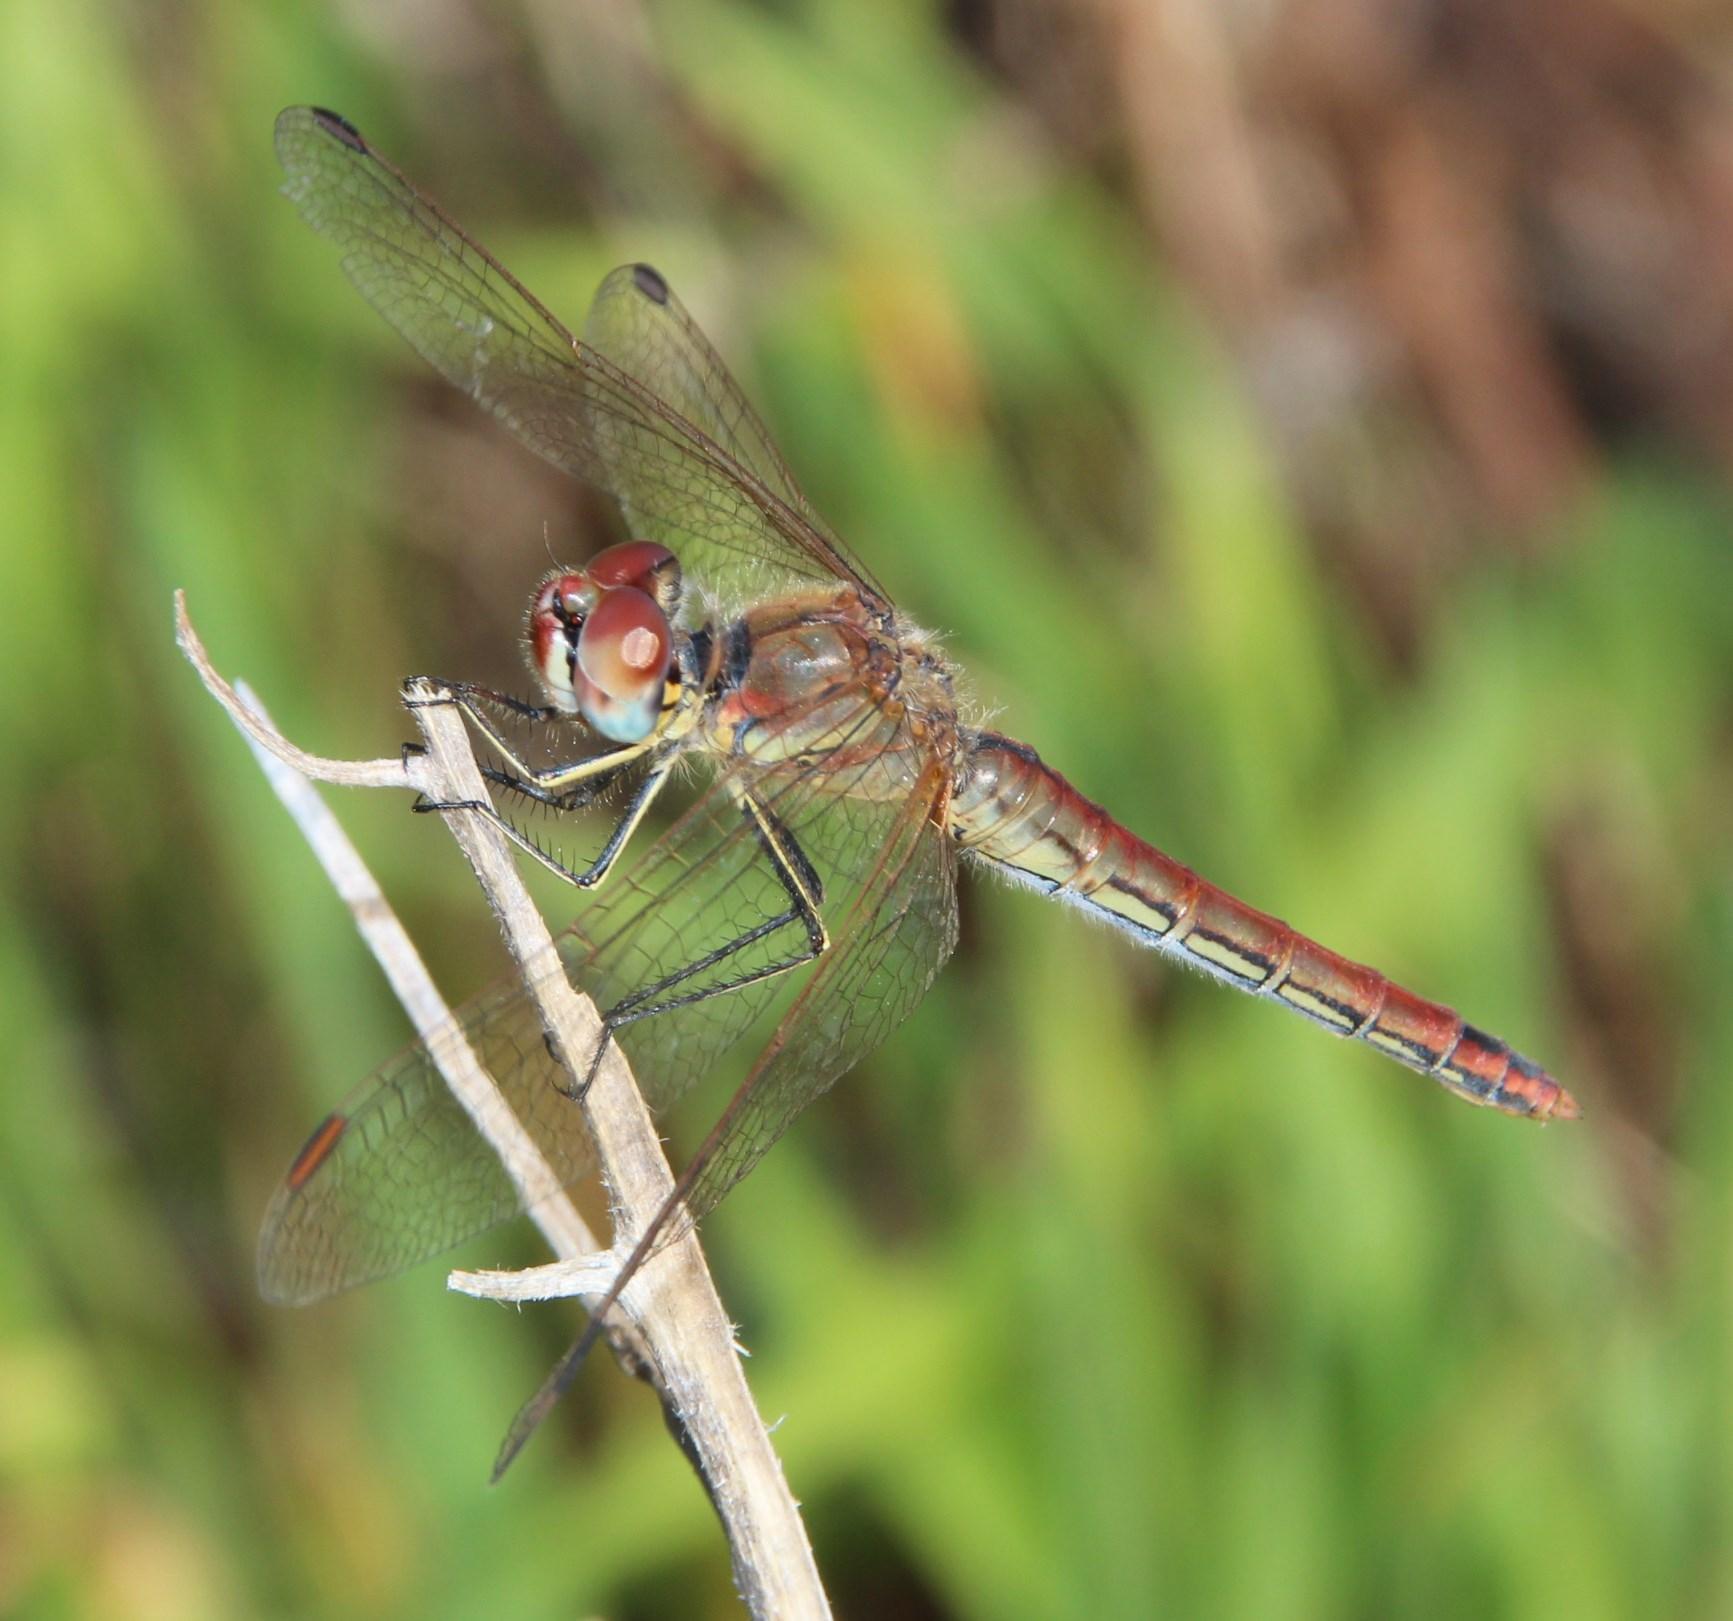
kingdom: Animalia
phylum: Arthropoda
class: Insecta
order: Odonata
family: Libellulidae
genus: Sympetrum
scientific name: Sympetrum fonscolombii
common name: Red-veined darter
